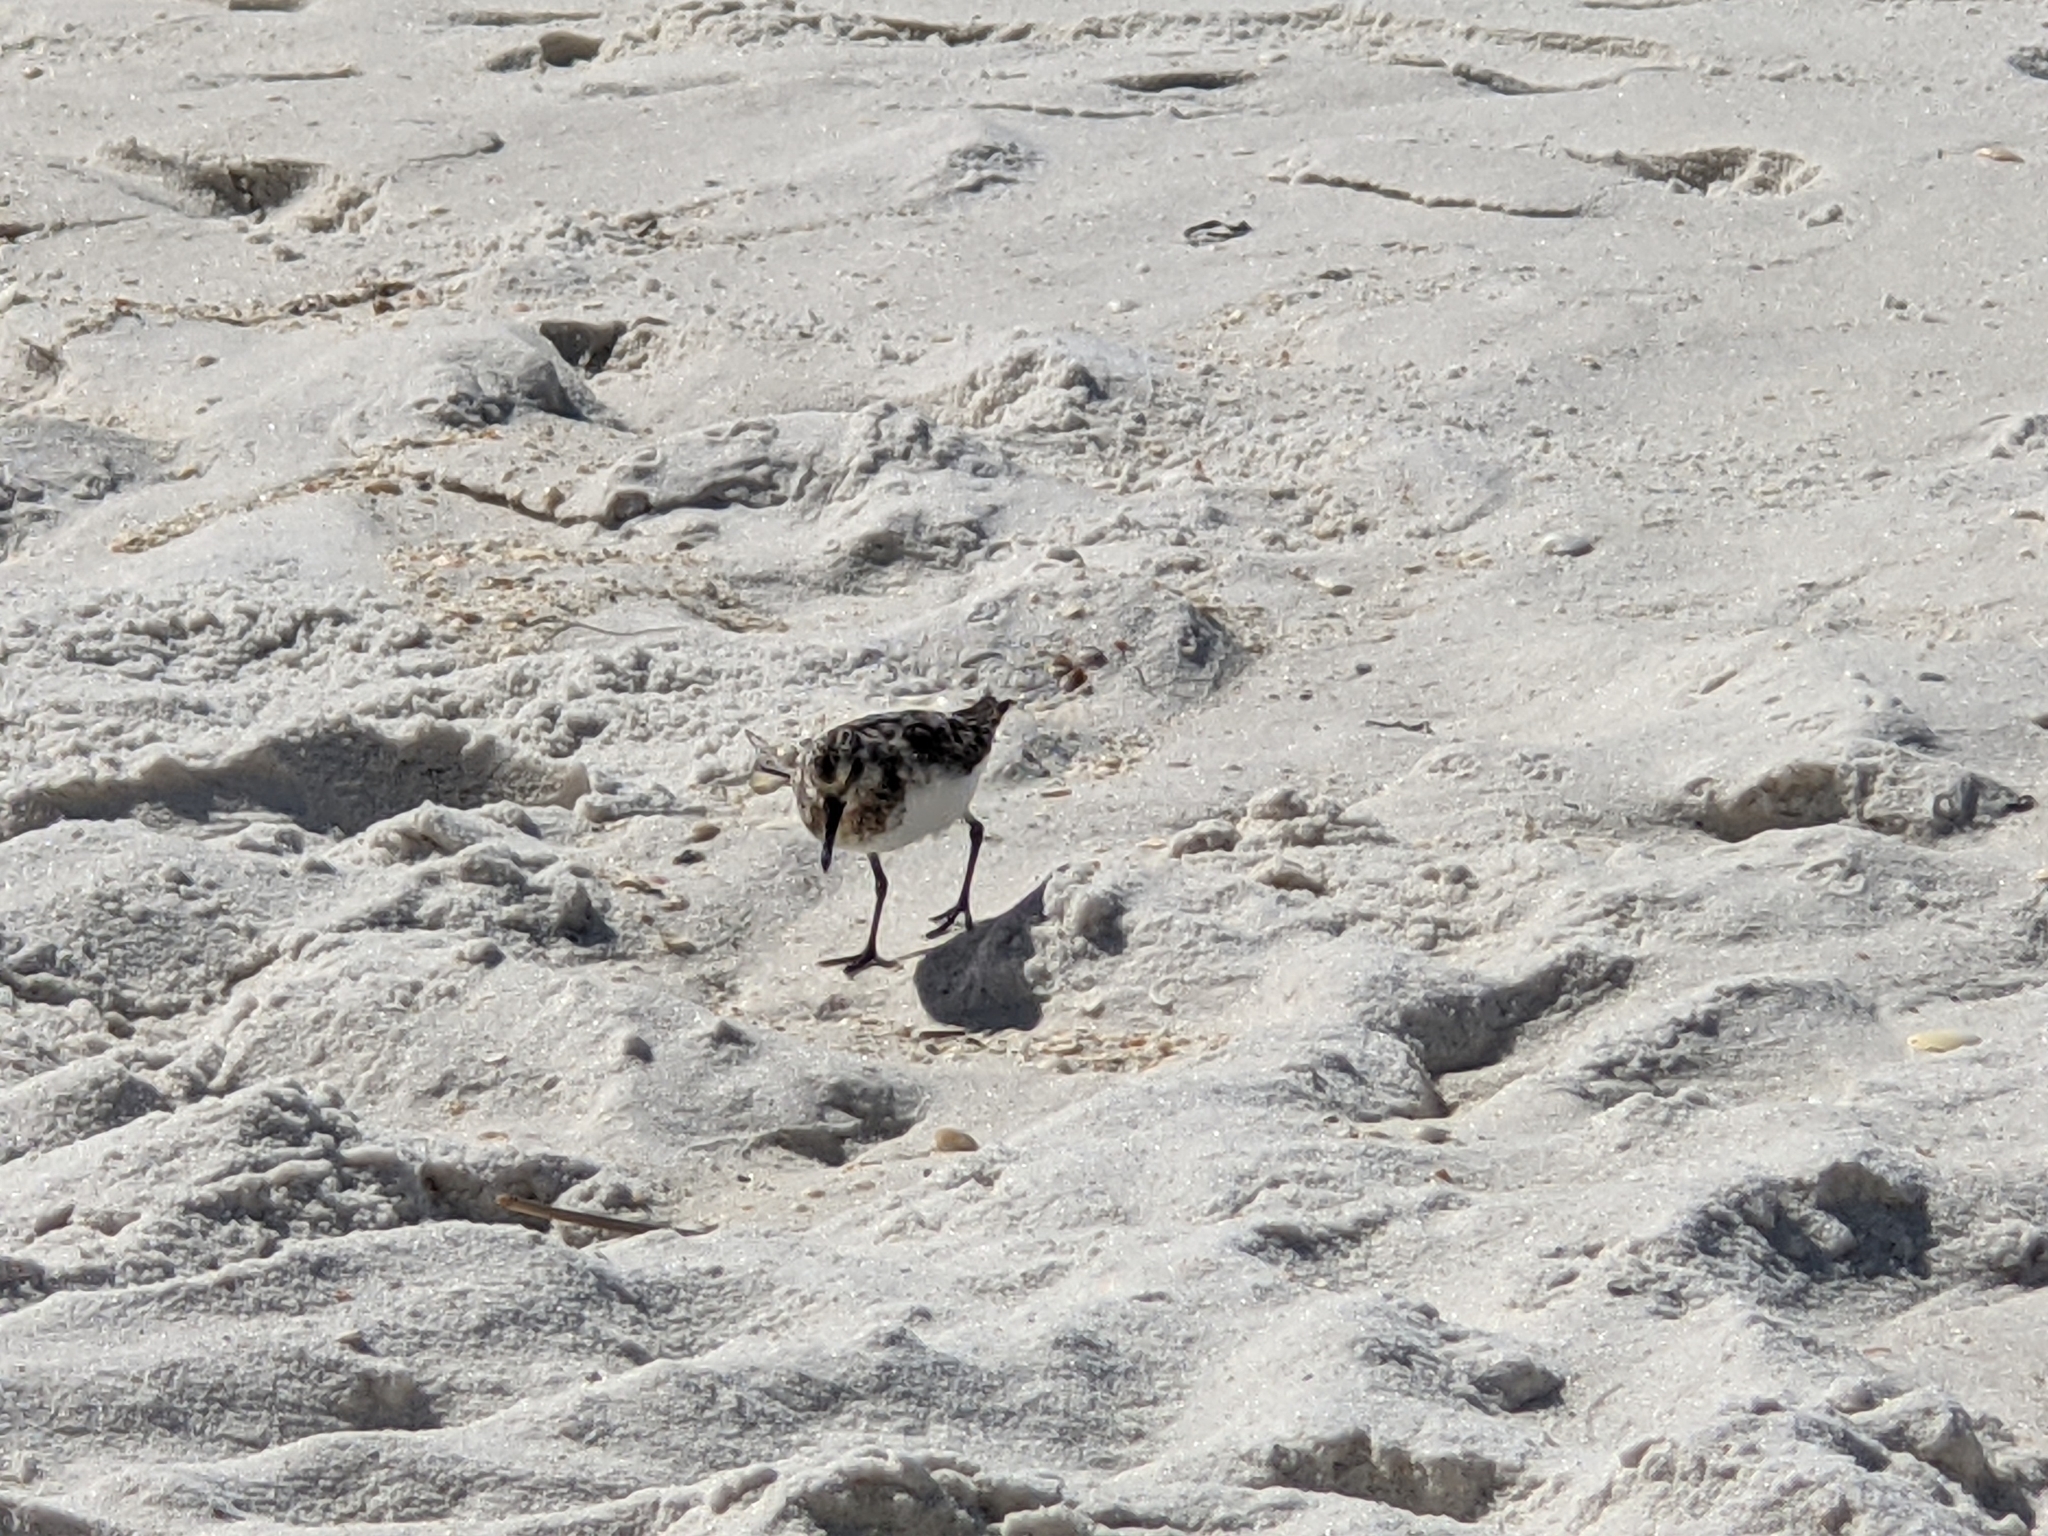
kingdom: Animalia
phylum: Chordata
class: Aves
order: Charadriiformes
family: Scolopacidae
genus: Calidris
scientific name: Calidris alba
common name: Sanderling
